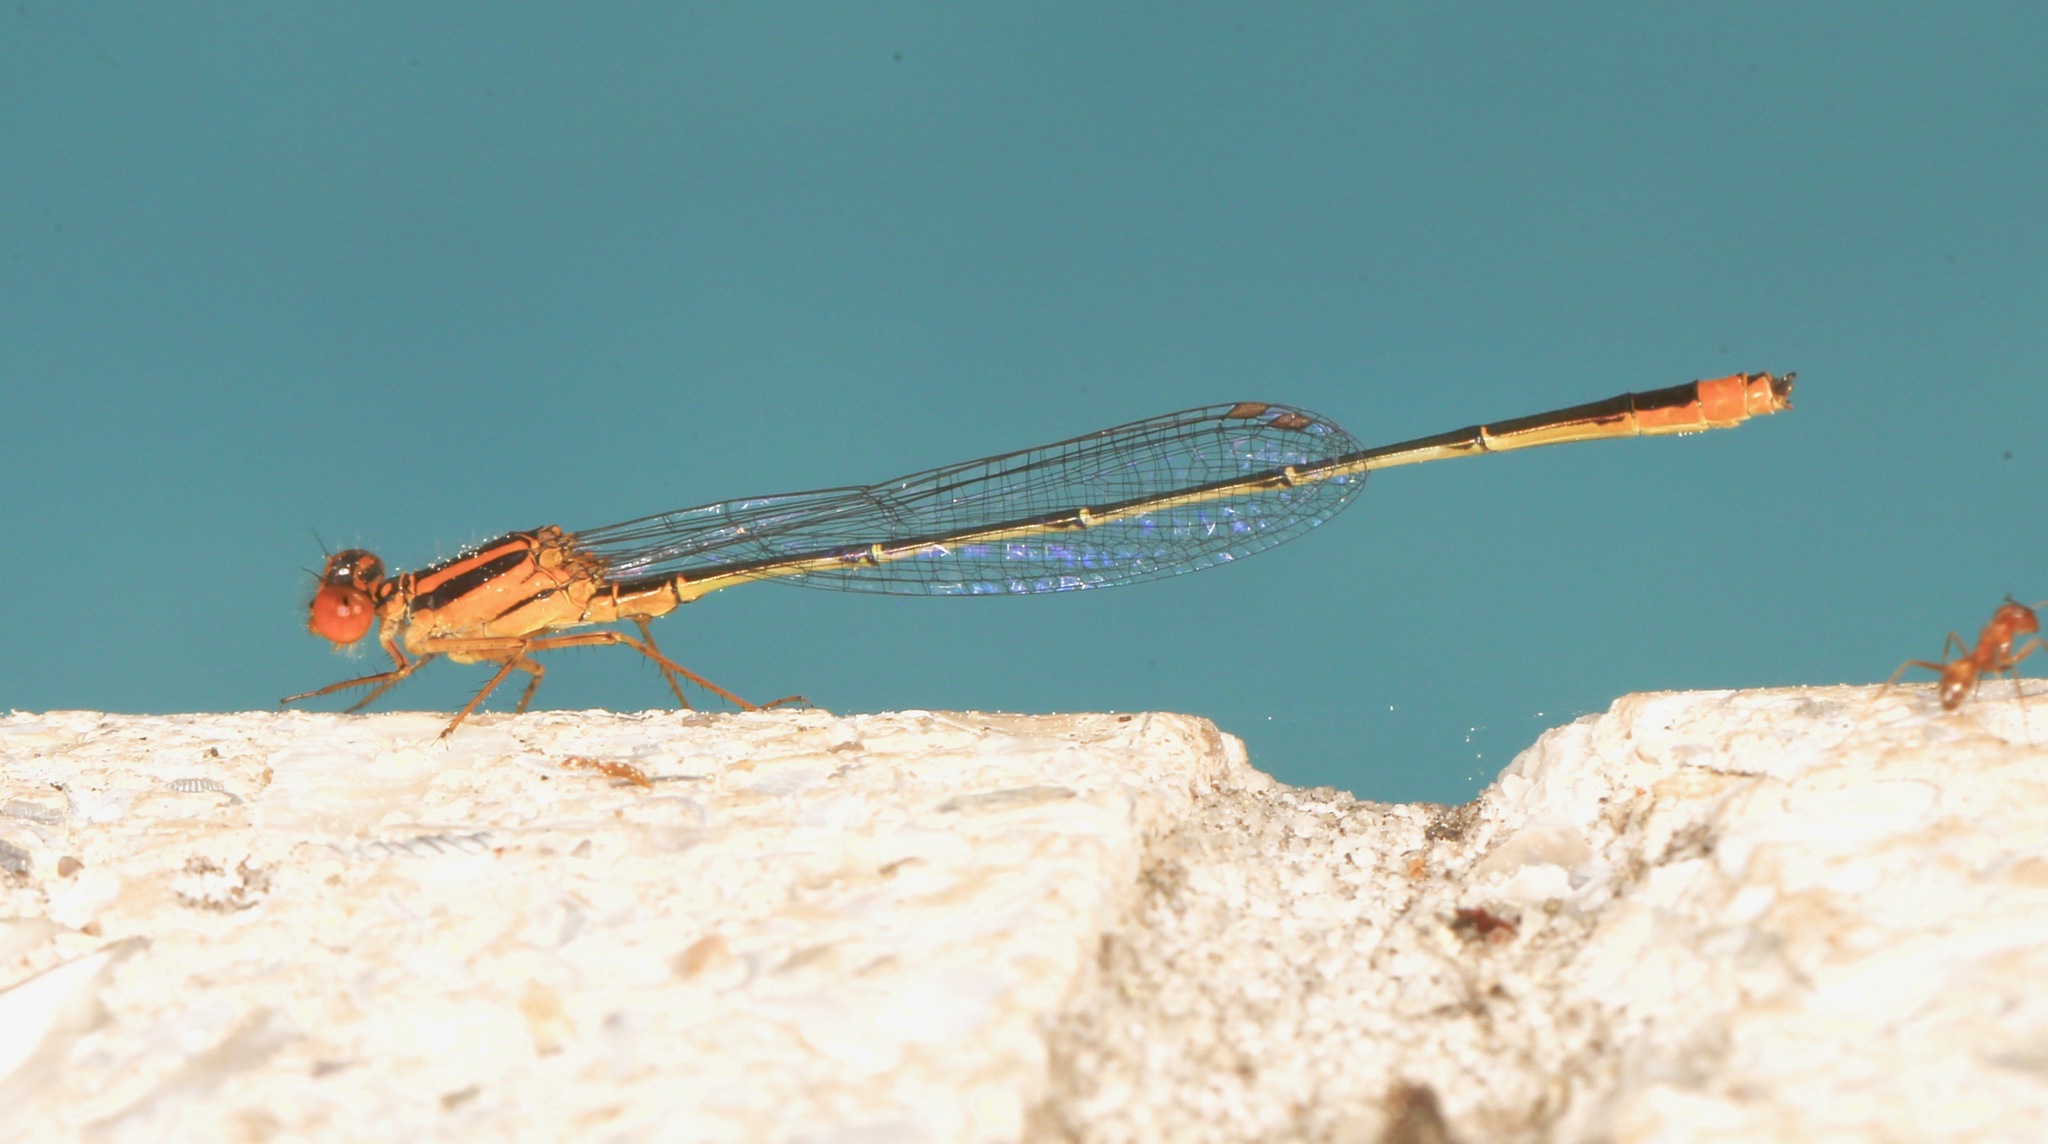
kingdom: Animalia
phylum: Arthropoda
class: Insecta
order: Odonata
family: Coenagrionidae
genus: Enallagma
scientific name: Enallagma pollutum
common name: Florida bluet
